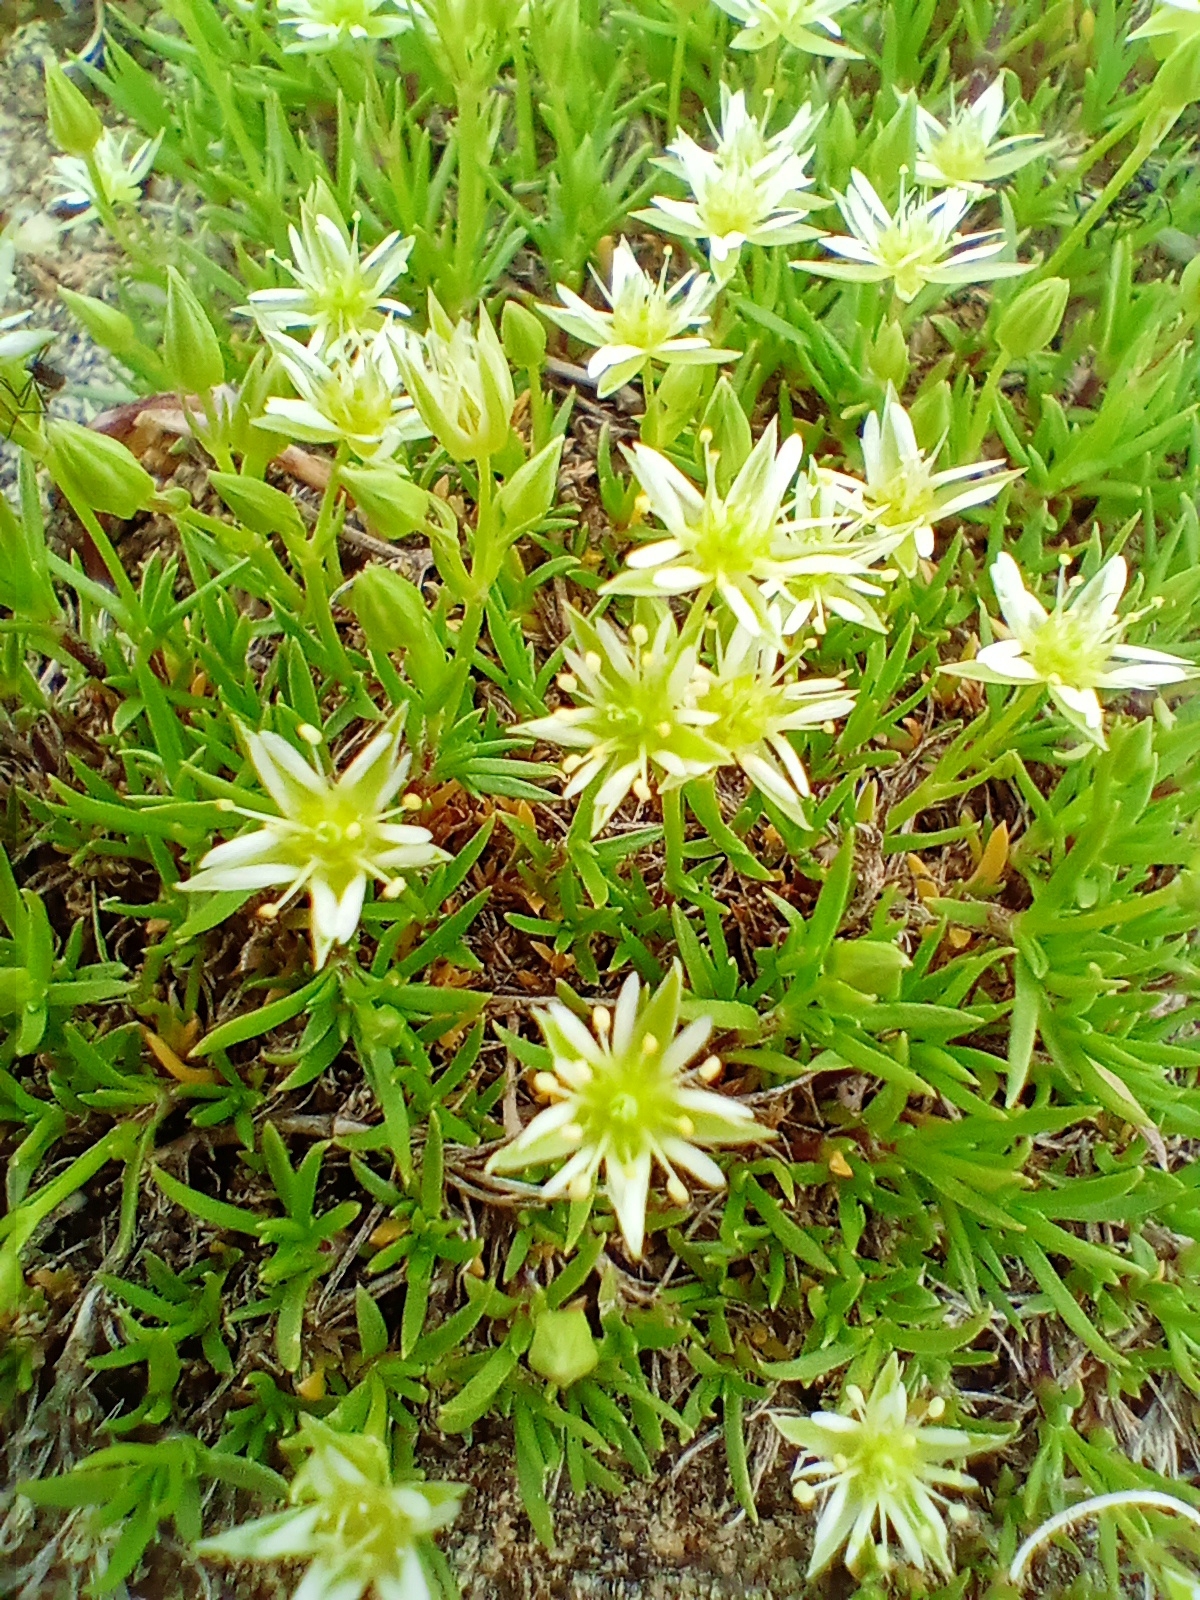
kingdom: Plantae
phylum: Tracheophyta
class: Magnoliopsida
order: Caryophyllales
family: Caryophyllaceae
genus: Adenonema
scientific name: Adenonema cherleriae
